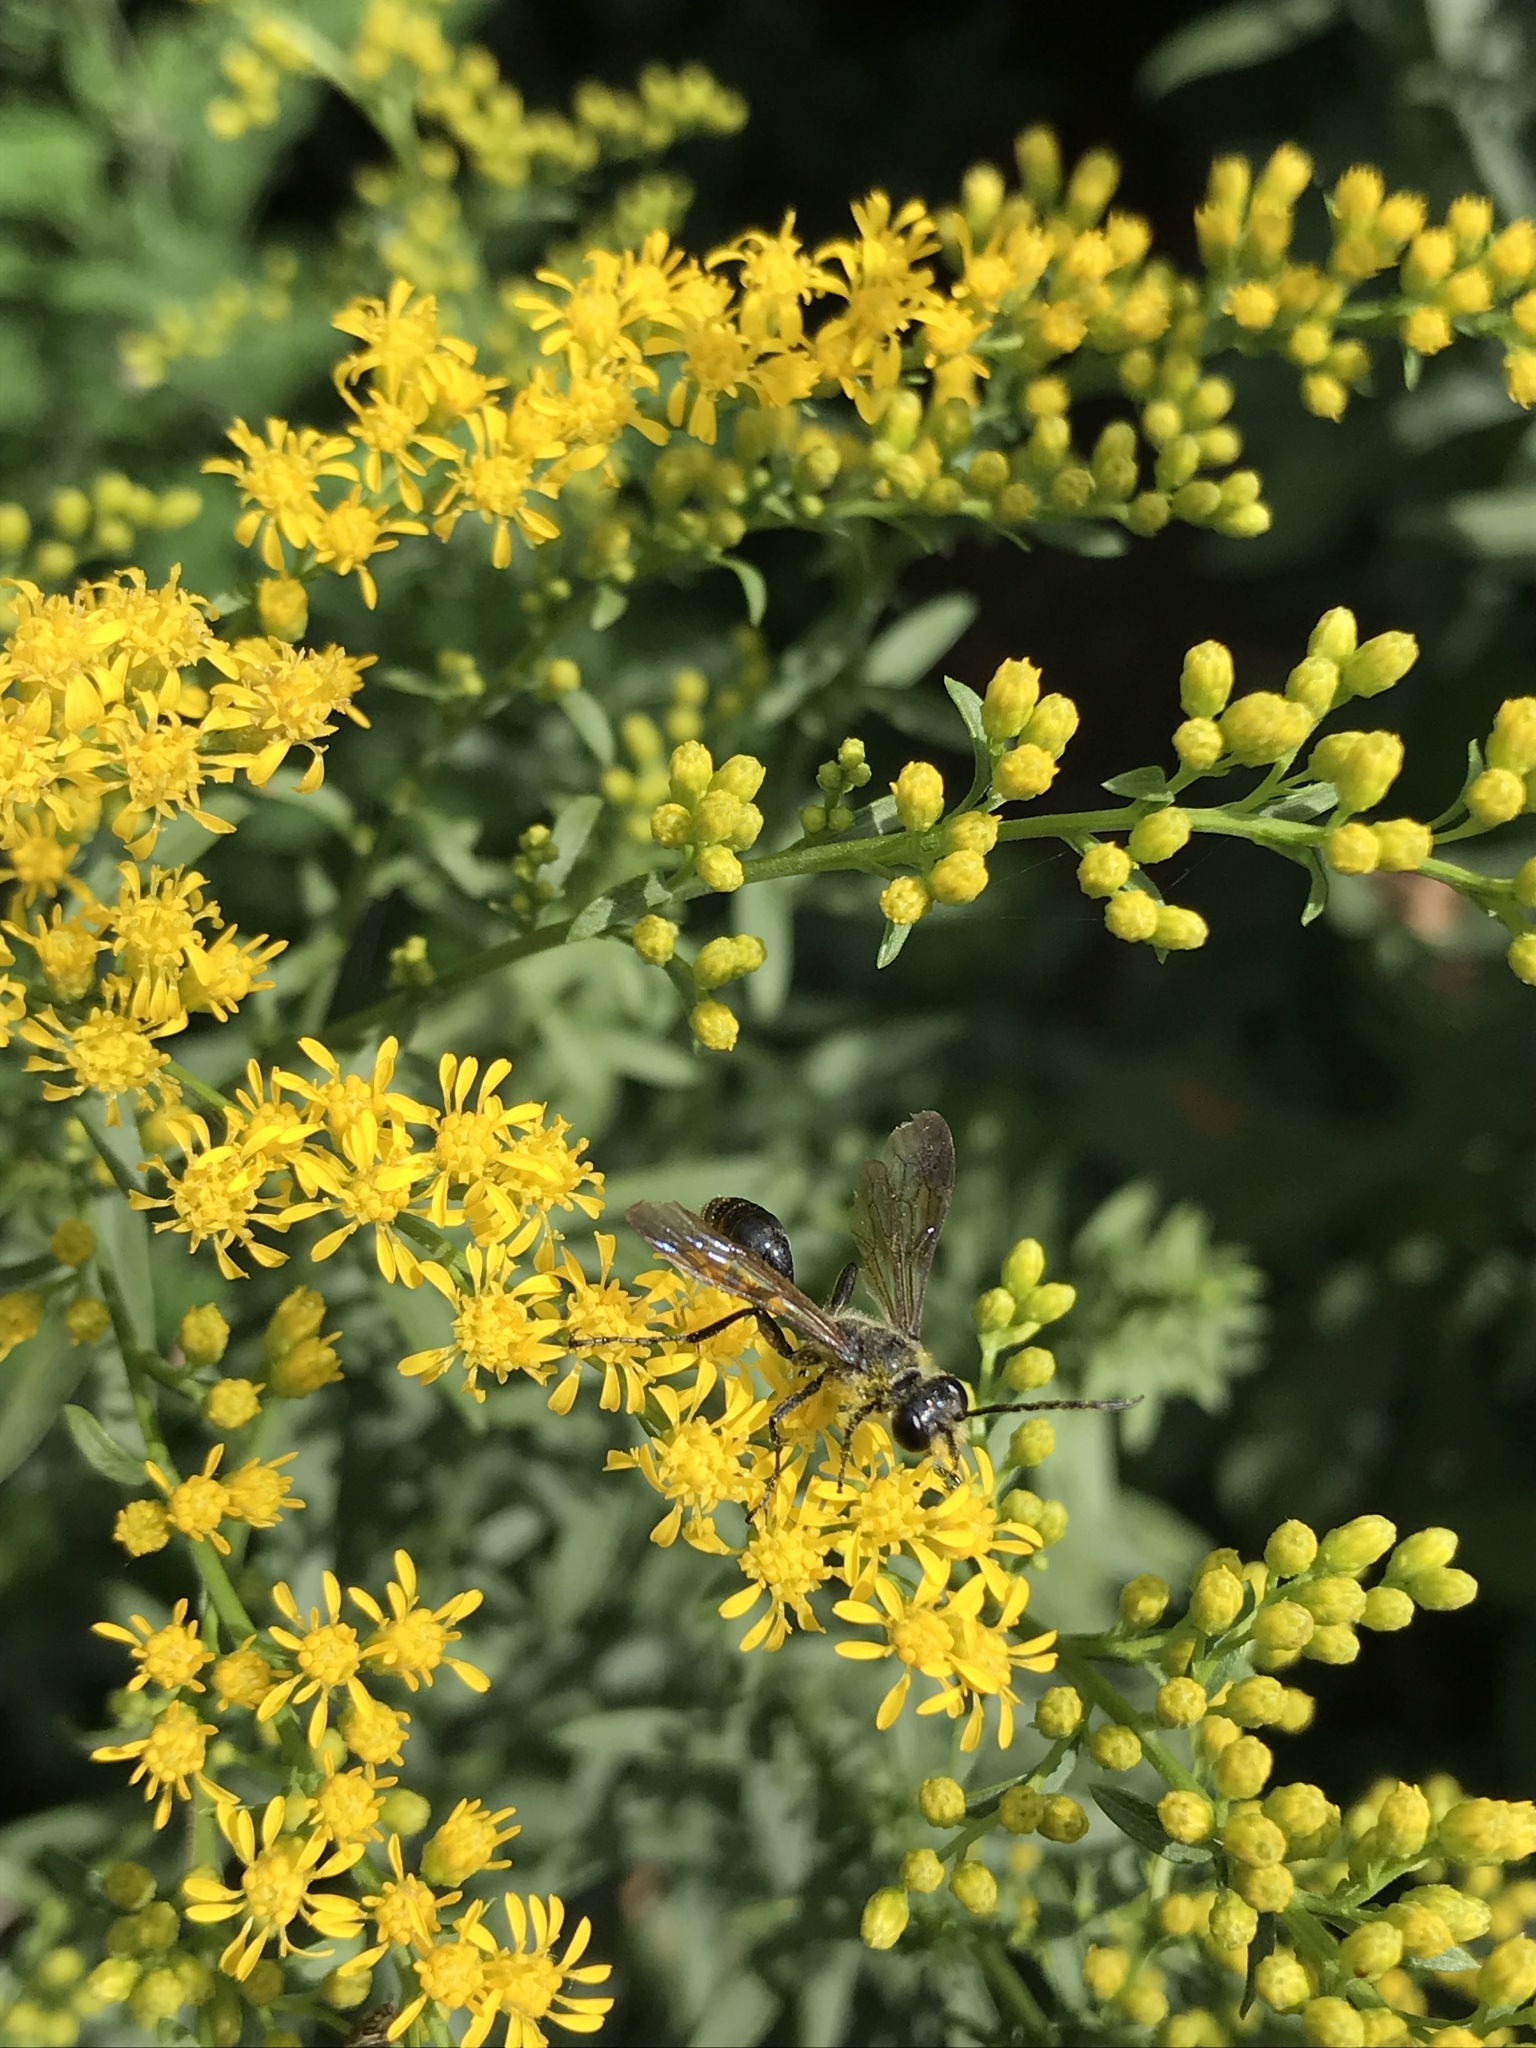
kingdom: Animalia
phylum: Arthropoda
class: Insecta
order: Hymenoptera
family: Sphecidae
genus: Isodontia
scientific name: Isodontia mexicana
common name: Mud dauber
